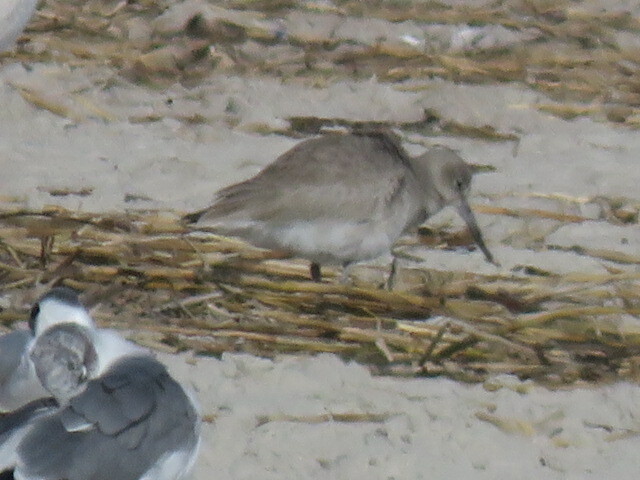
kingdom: Animalia
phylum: Chordata
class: Aves
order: Charadriiformes
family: Scolopacidae
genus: Tringa
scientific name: Tringa semipalmata
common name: Willet
